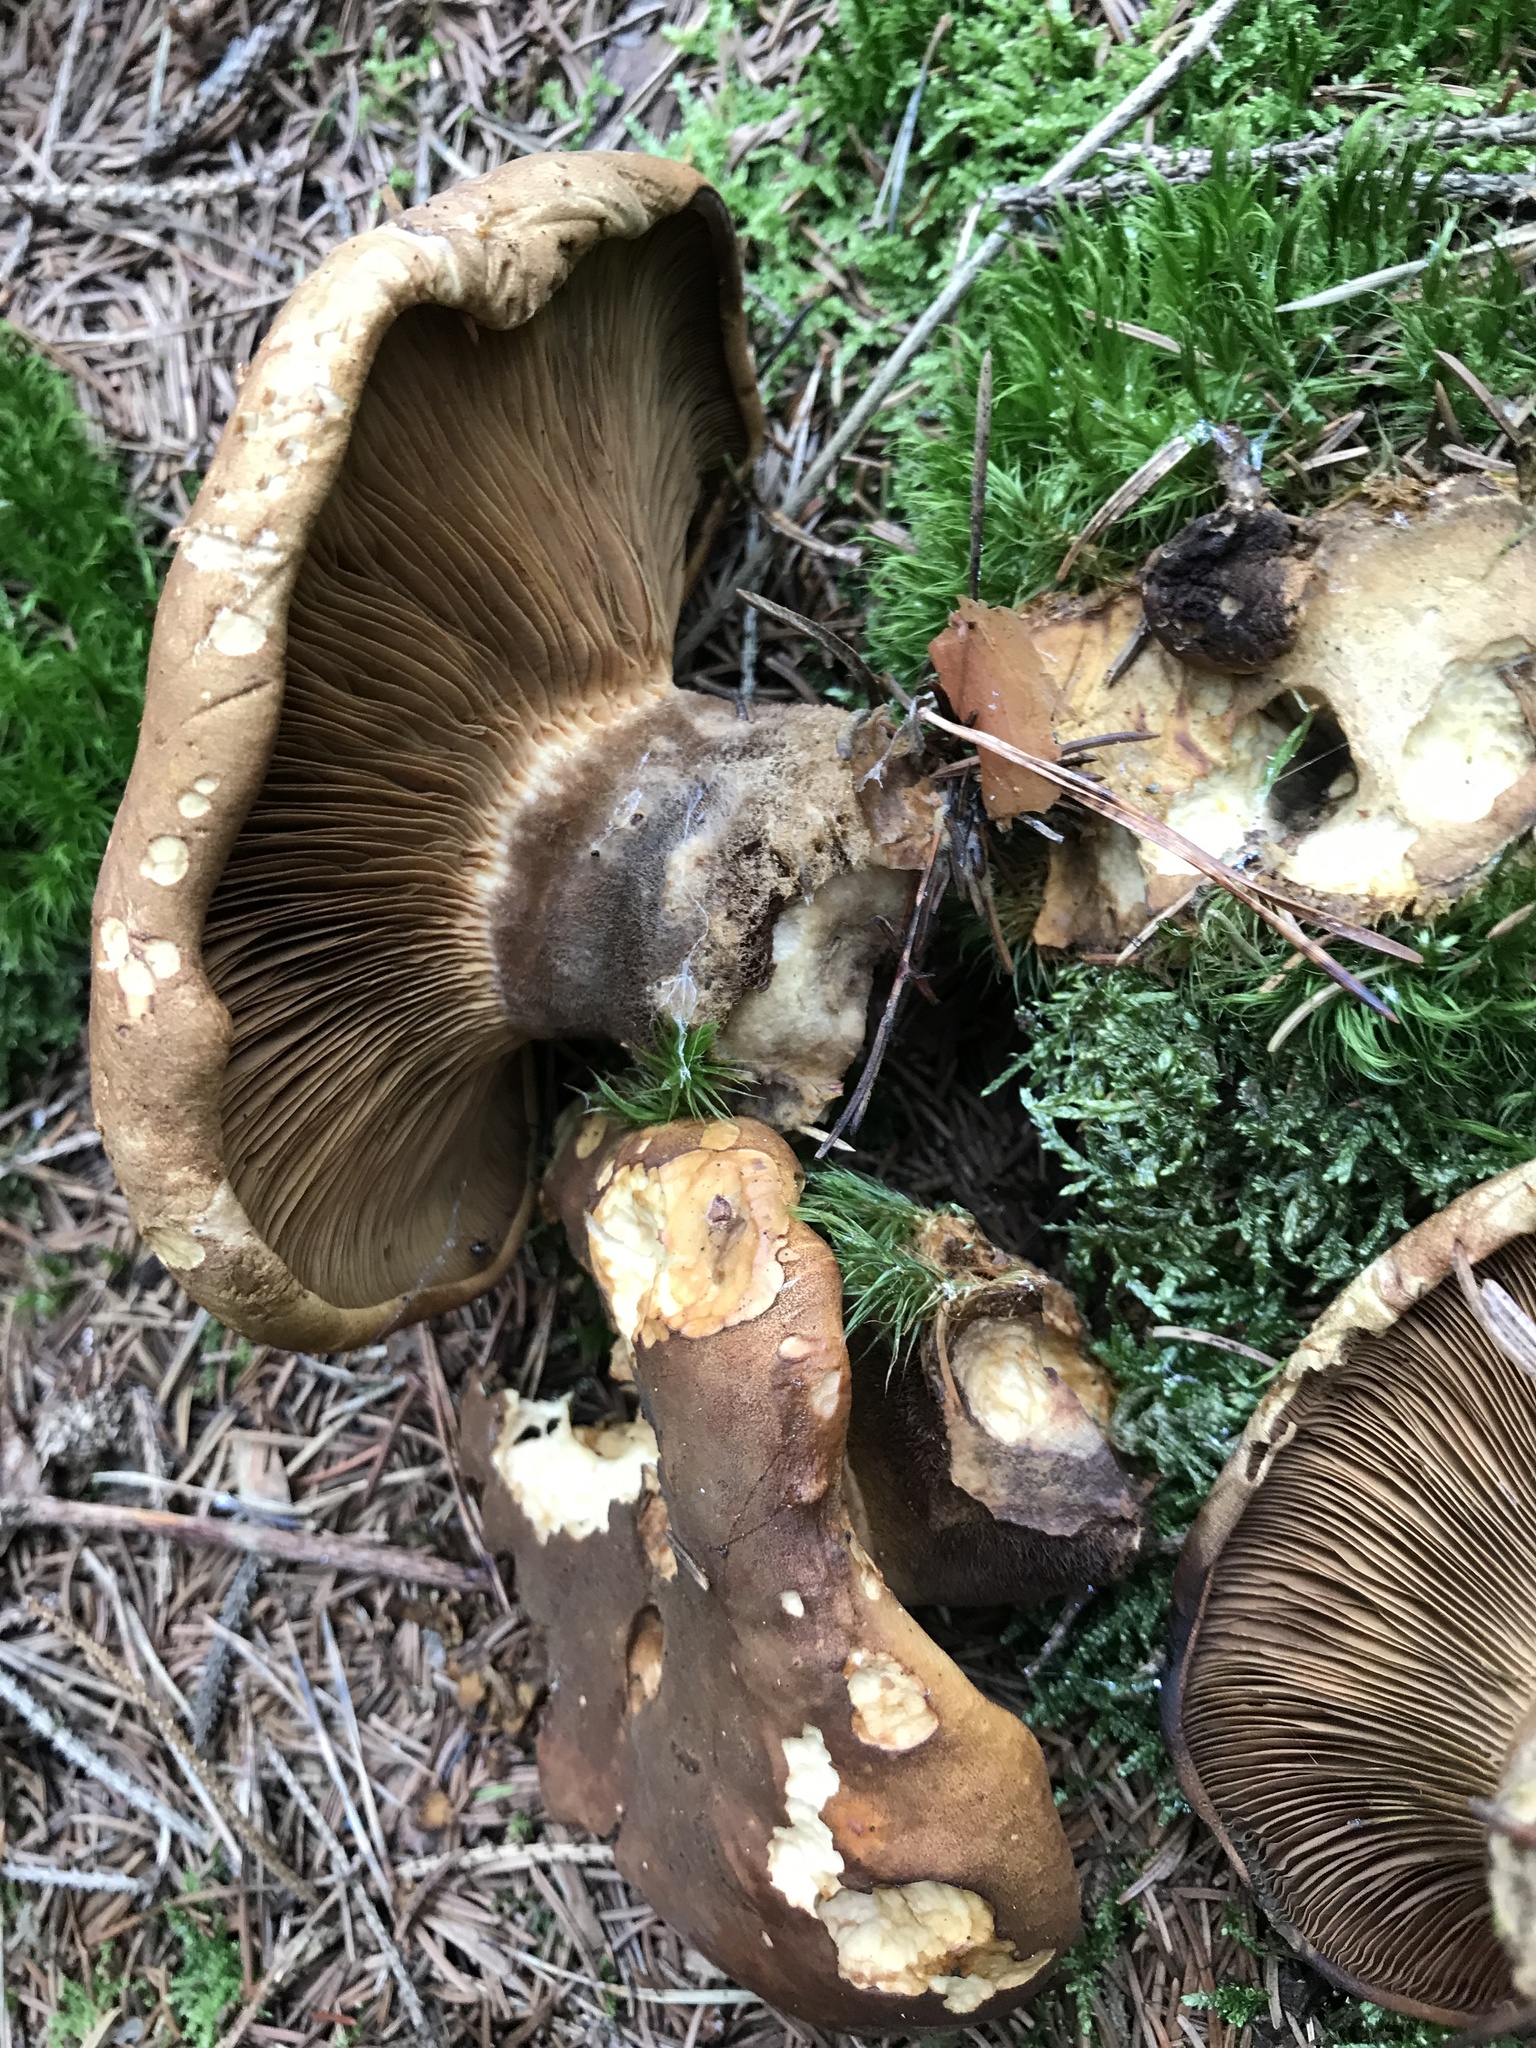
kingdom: Fungi
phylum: Basidiomycota
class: Agaricomycetes
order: Boletales
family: Tapinellaceae
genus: Tapinella
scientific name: Tapinella atrotomentosa
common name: Velvet rollrim
